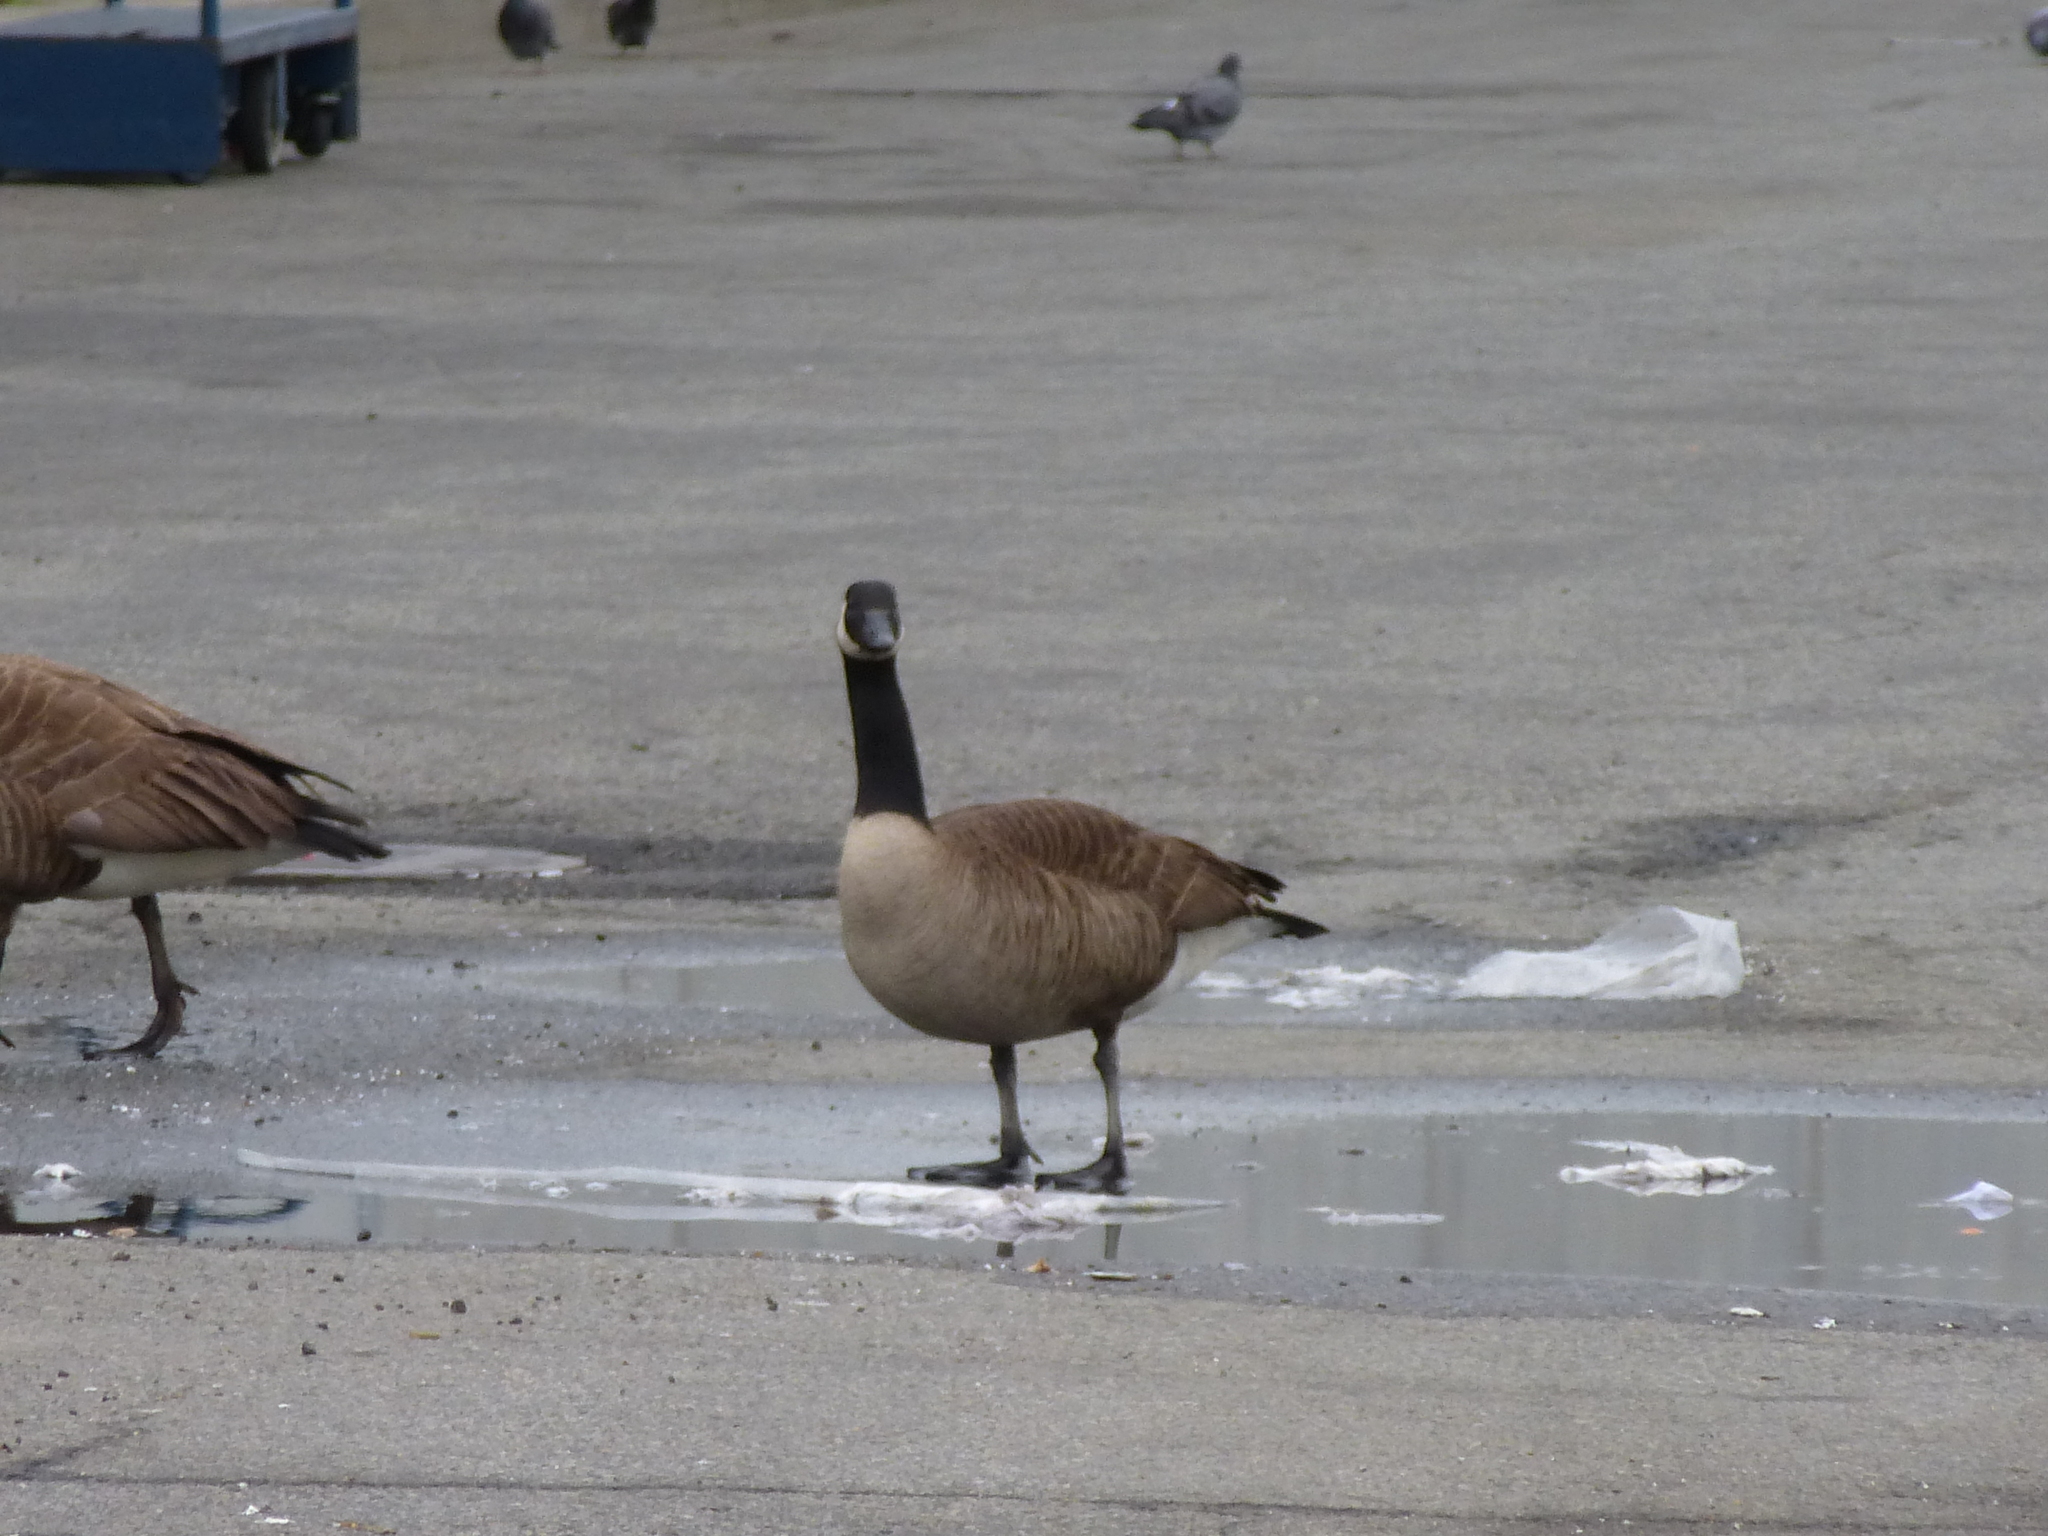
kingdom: Animalia
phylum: Chordata
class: Aves
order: Anseriformes
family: Anatidae
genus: Branta
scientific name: Branta canadensis
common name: Canada goose
